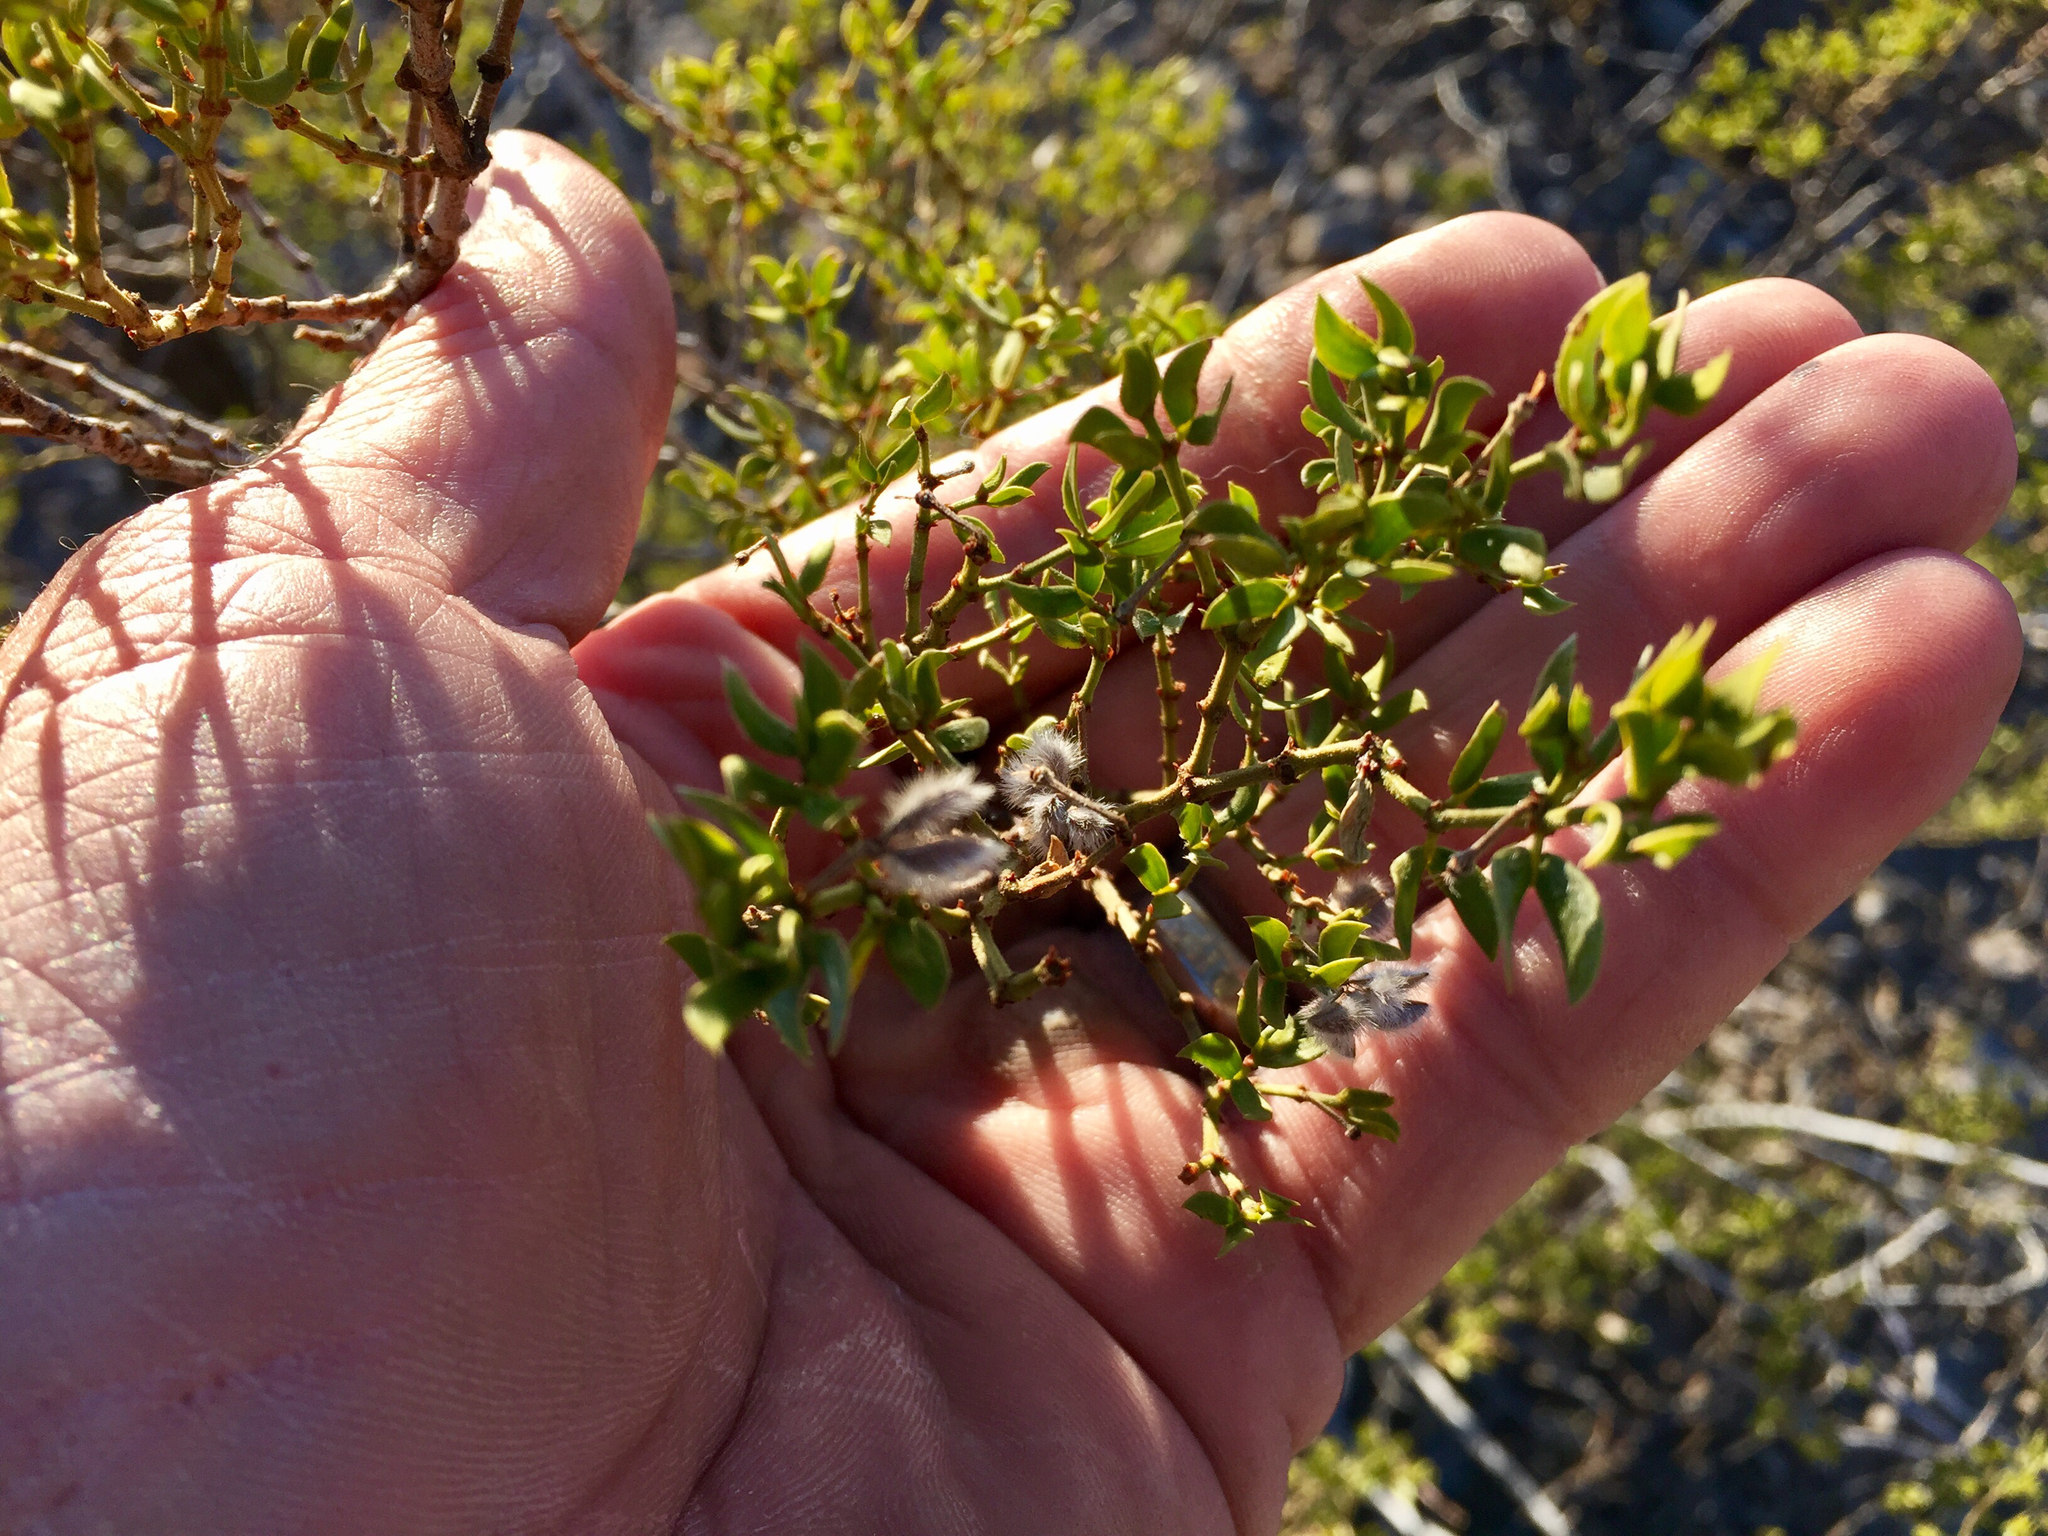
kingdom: Plantae
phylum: Tracheophyta
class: Magnoliopsida
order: Zygophyllales
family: Zygophyllaceae
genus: Larrea
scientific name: Larrea tridentata
